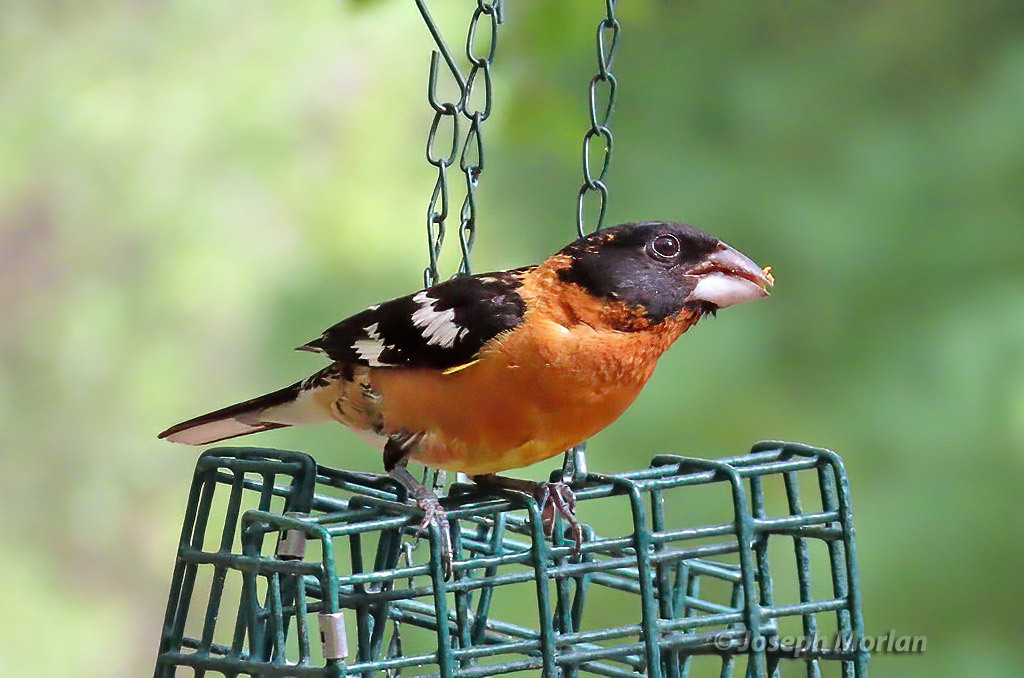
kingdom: Animalia
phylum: Chordata
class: Aves
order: Passeriformes
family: Cardinalidae
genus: Pheucticus
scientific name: Pheucticus melanocephalus
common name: Black-headed grosbeak
